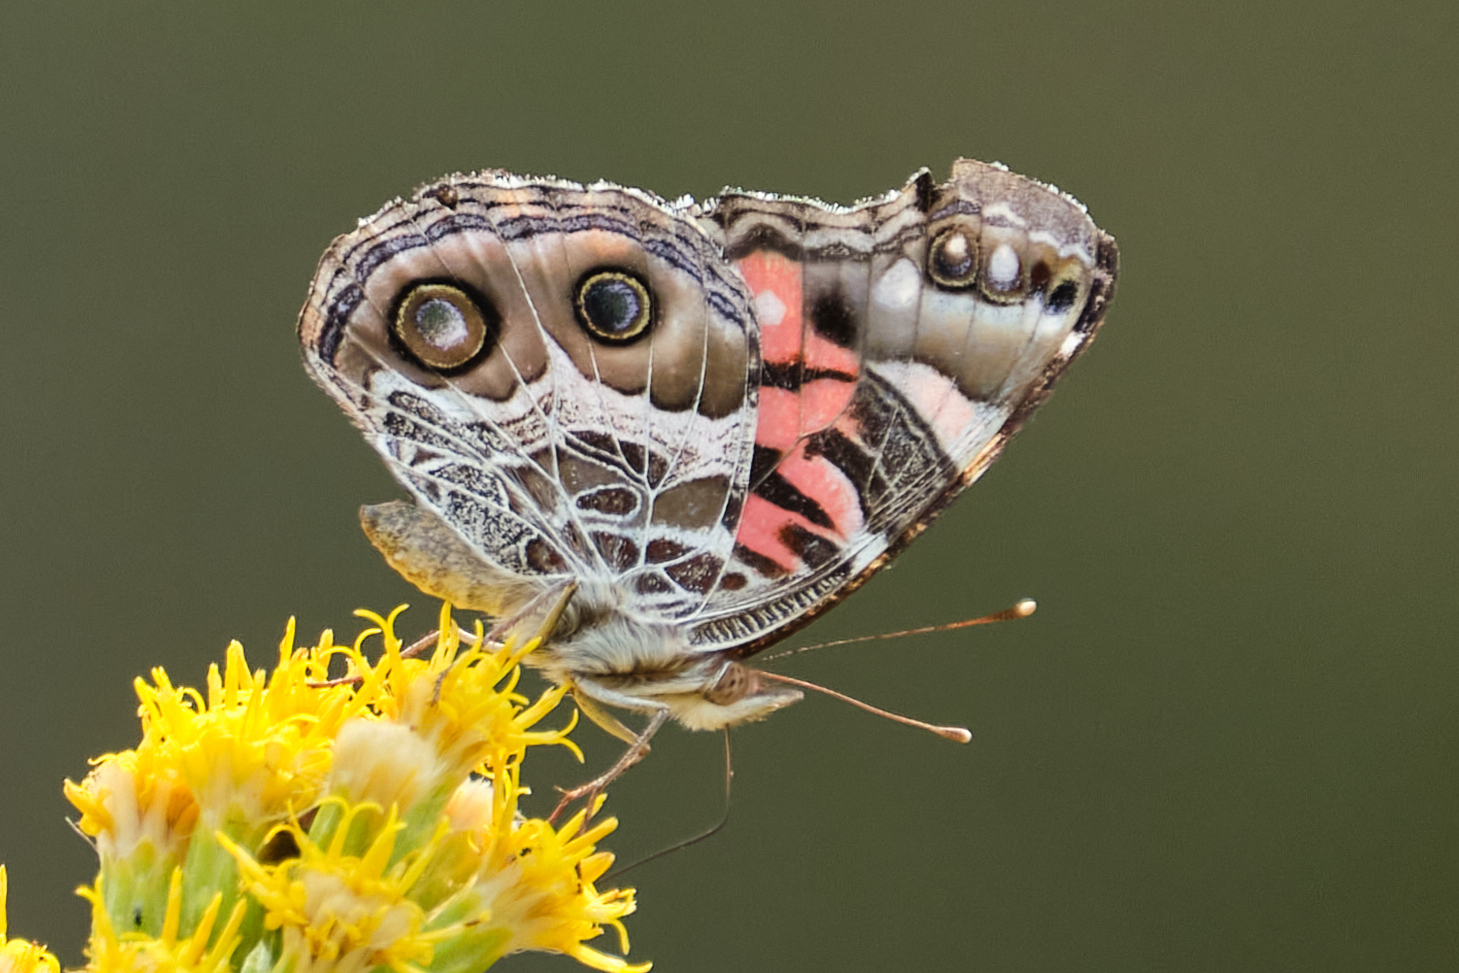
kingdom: Animalia
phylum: Arthropoda
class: Insecta
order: Lepidoptera
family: Nymphalidae
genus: Vanessa
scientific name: Vanessa virginiensis
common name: American lady
